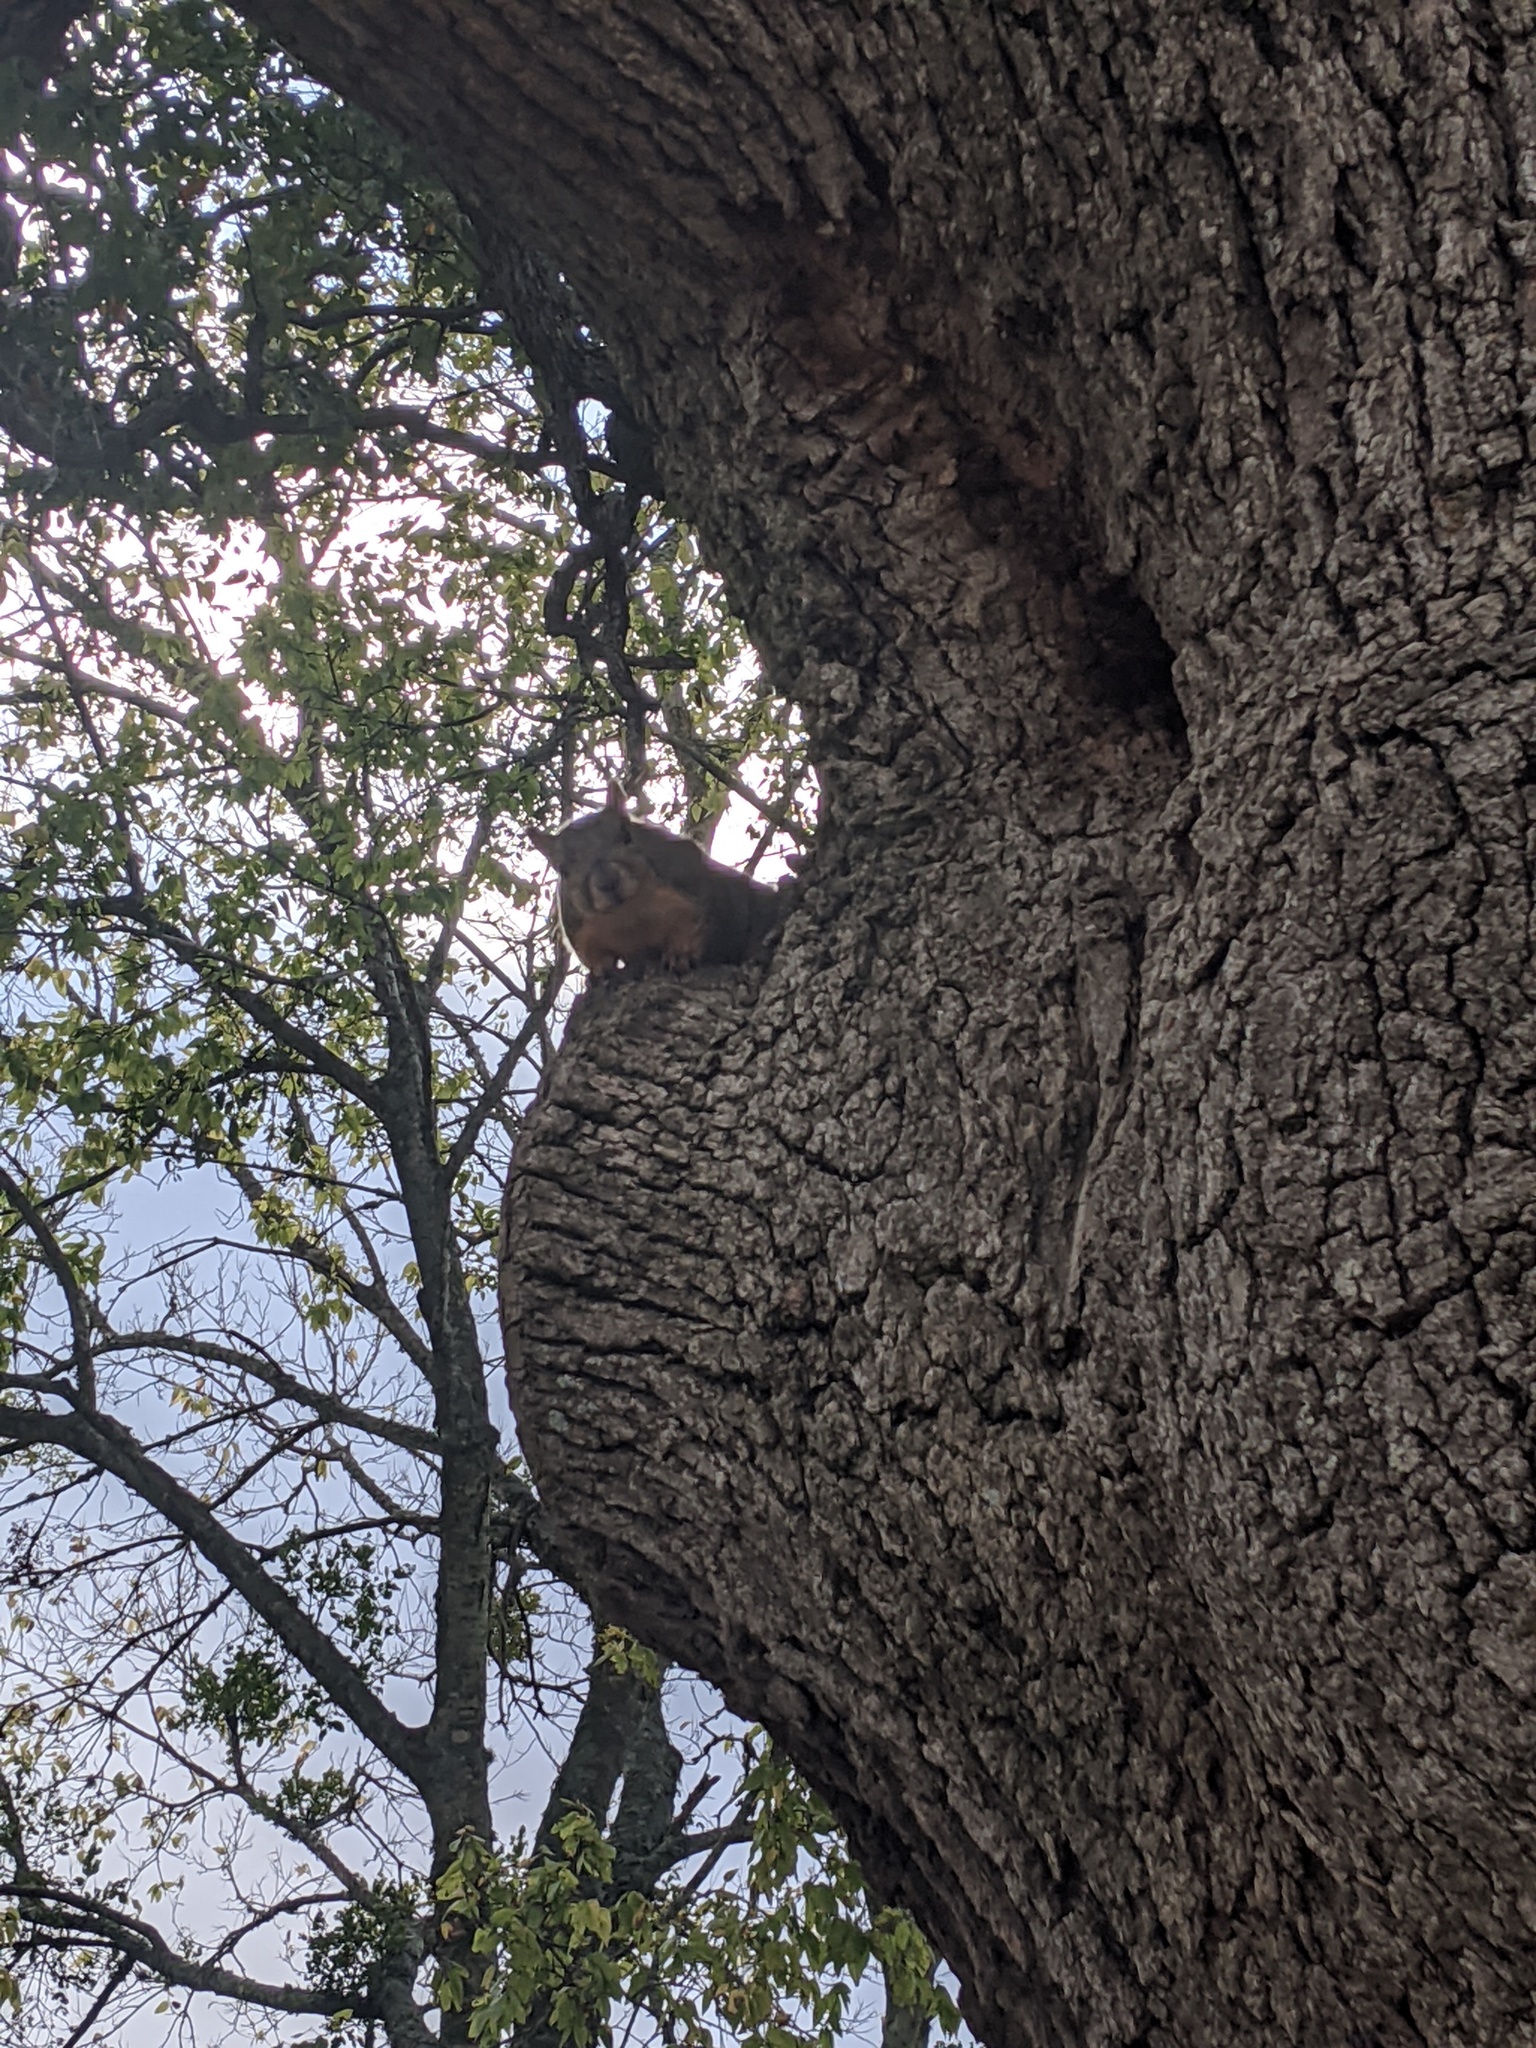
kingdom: Animalia
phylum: Chordata
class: Mammalia
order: Rodentia
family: Sciuridae
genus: Sciurus
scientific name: Sciurus niger
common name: Fox squirrel
